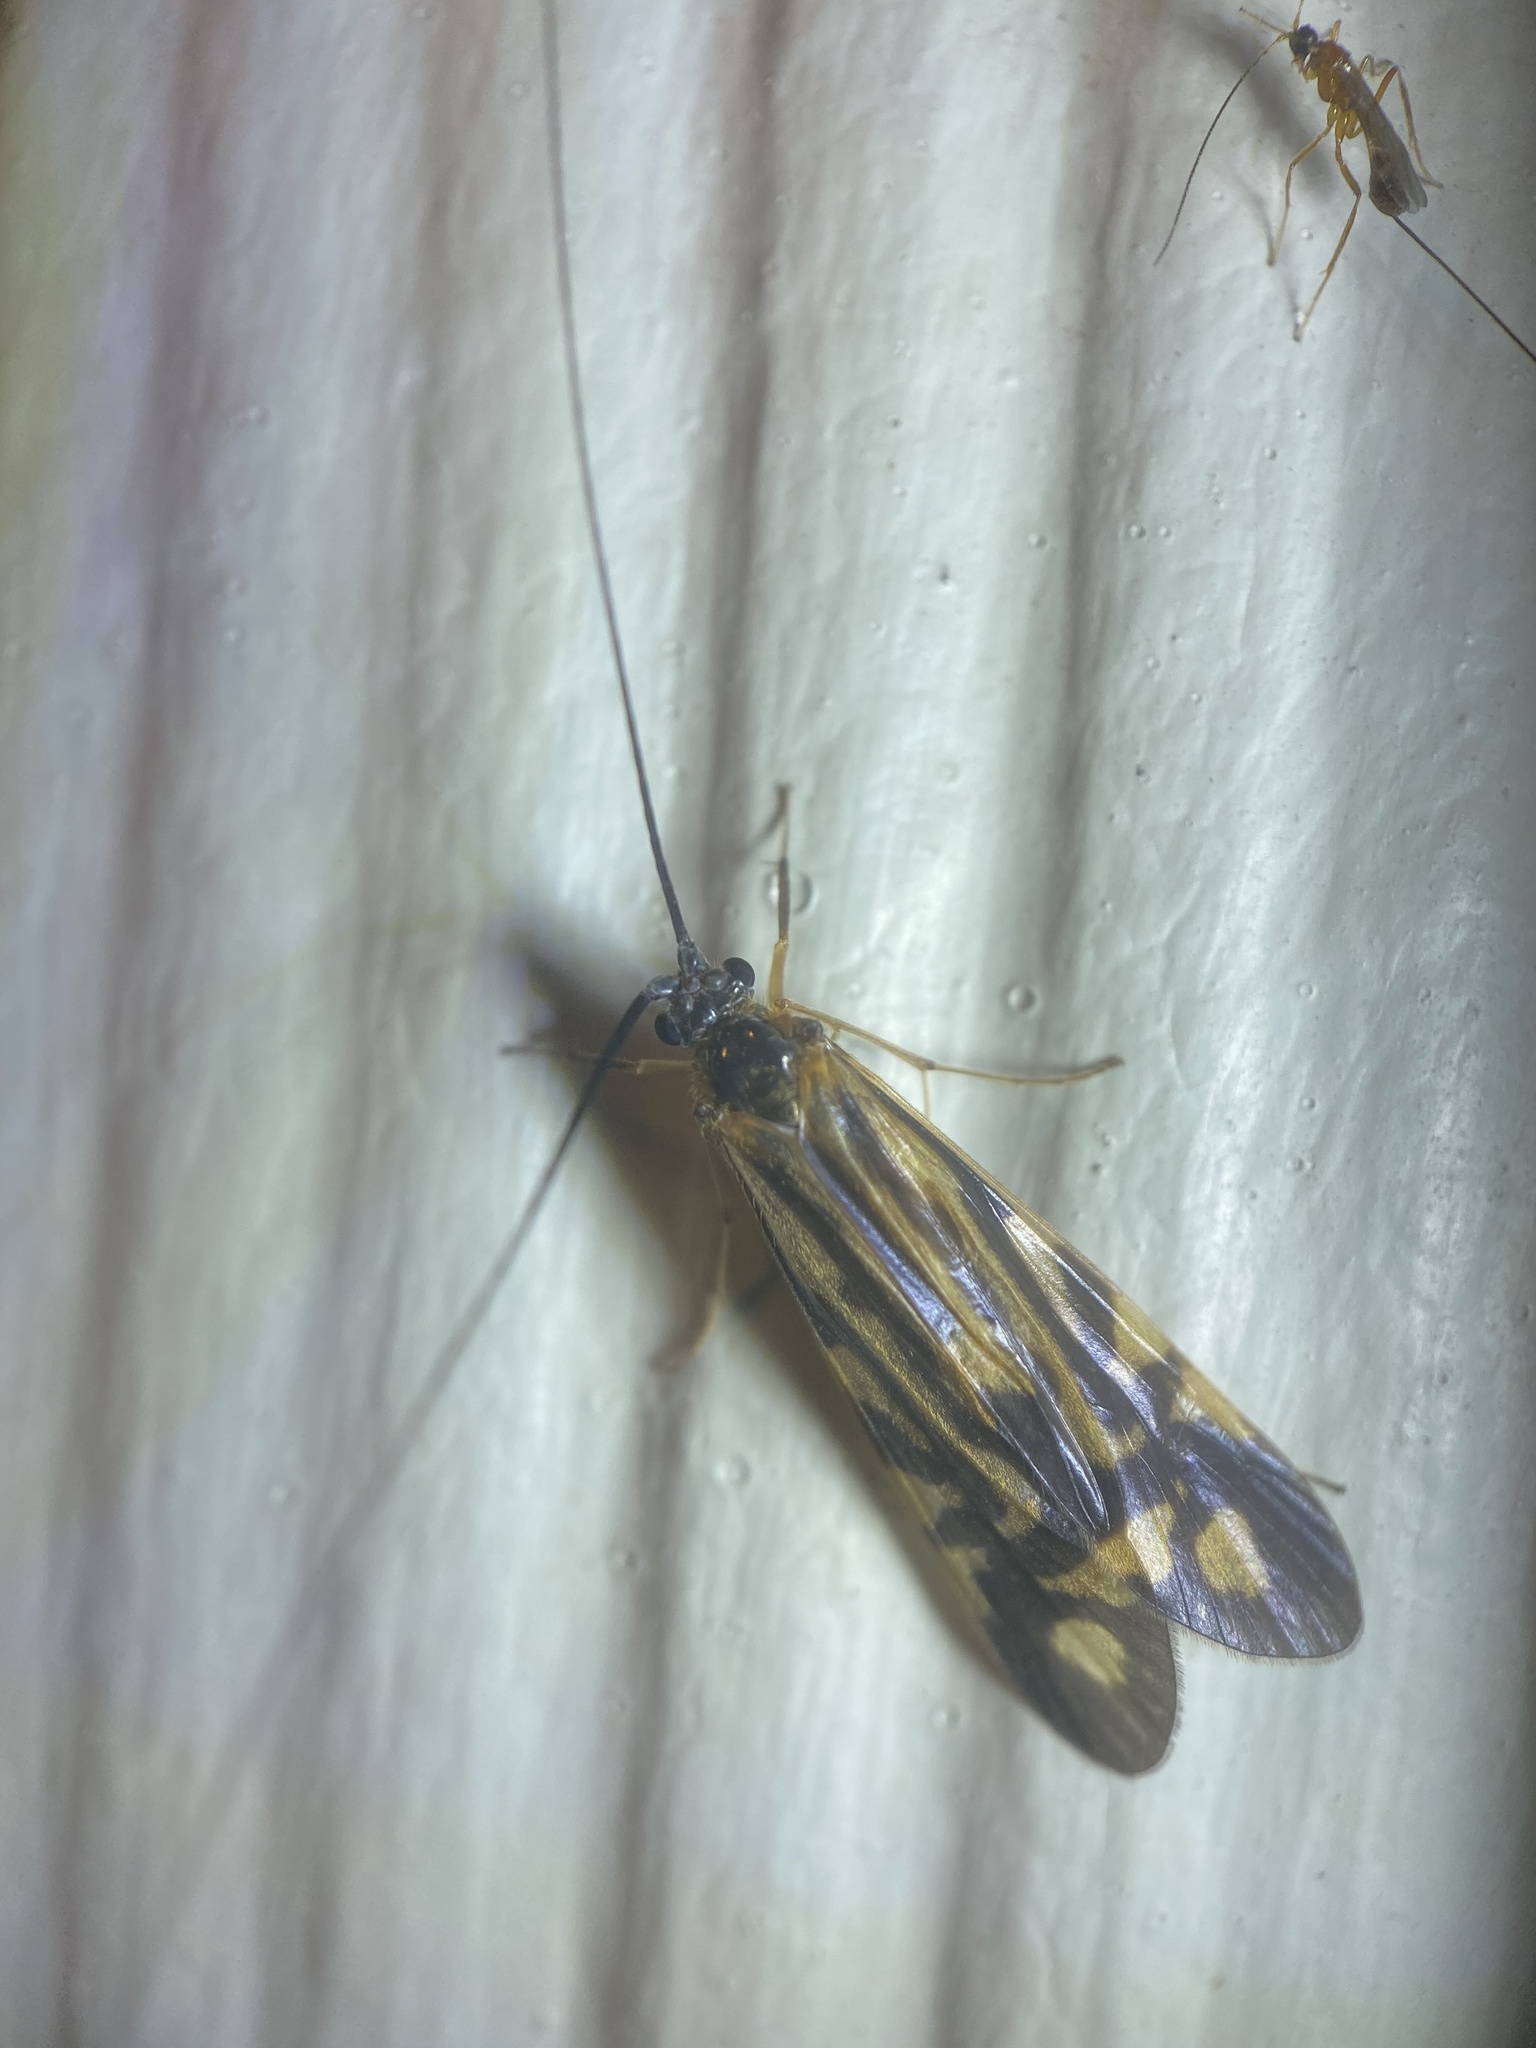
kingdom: Animalia
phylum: Arthropoda
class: Insecta
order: Trichoptera
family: Hydropsychidae
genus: Macrostemum
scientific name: Macrostemum zebratum
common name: Zebra caddisfly
